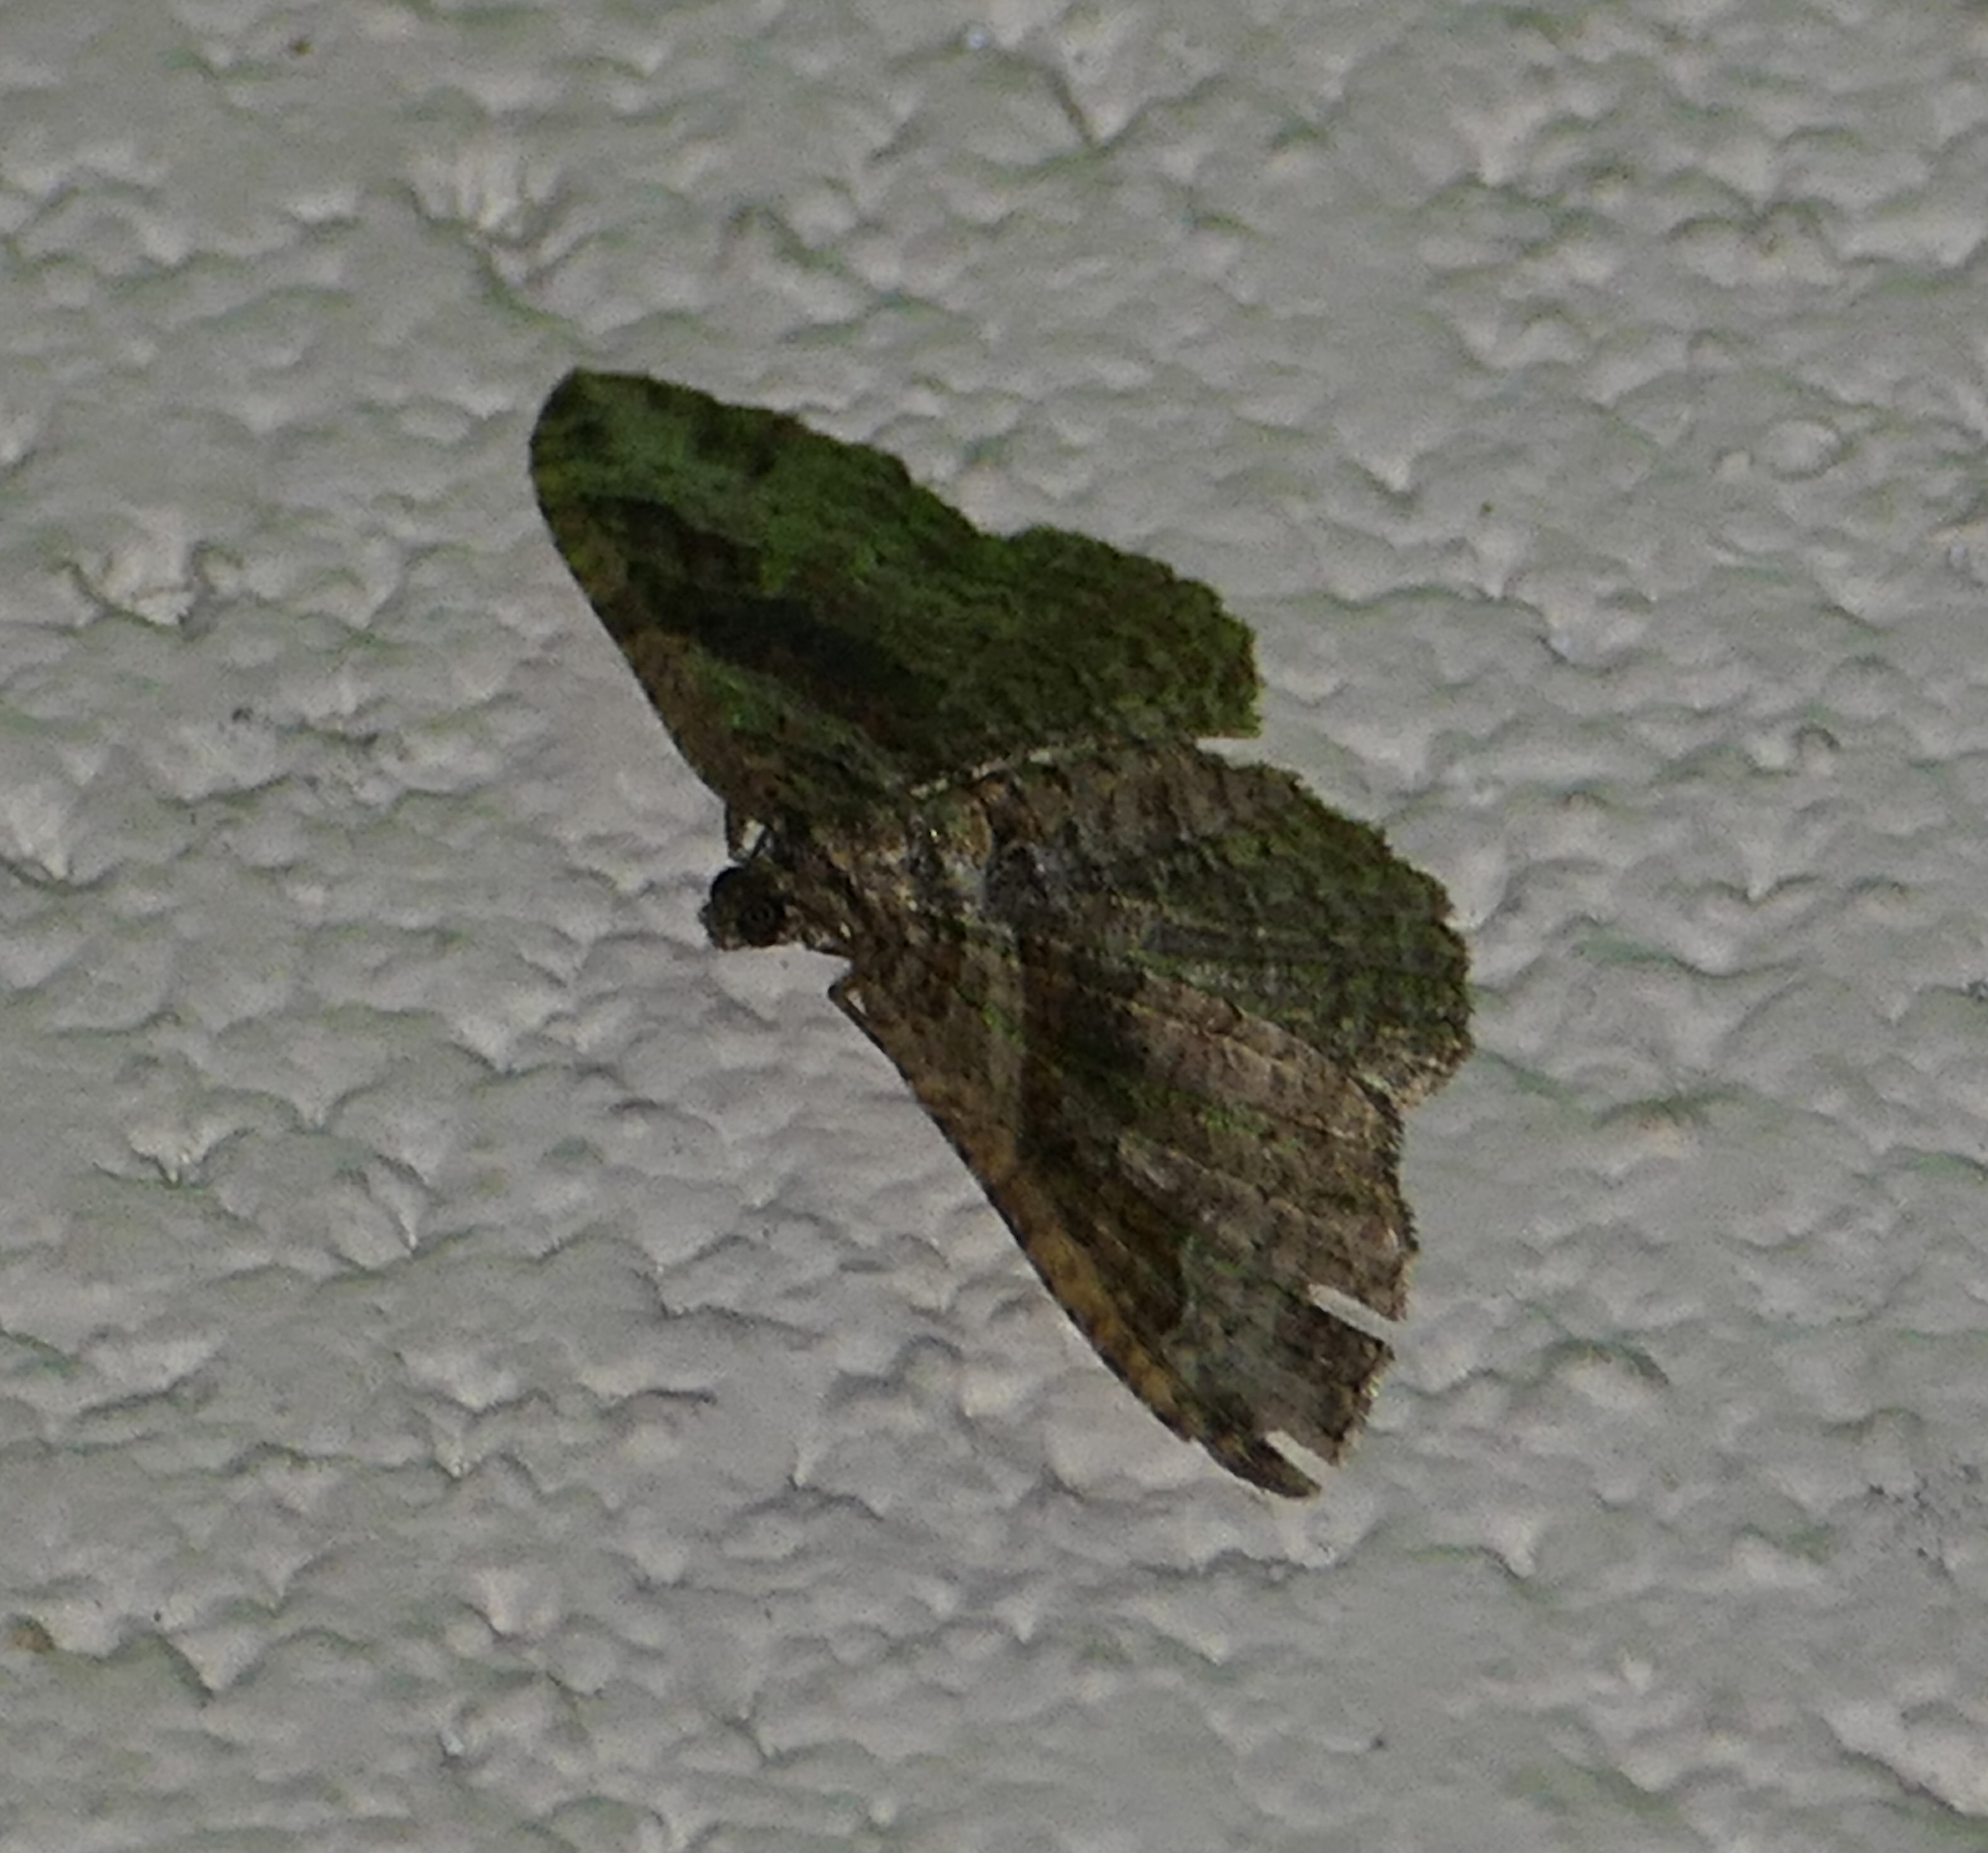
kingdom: Animalia
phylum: Arthropoda
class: Insecta
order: Lepidoptera
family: Geometridae
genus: Costaconvexa
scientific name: Costaconvexa centrostrigaria
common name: Bent-line carpet
